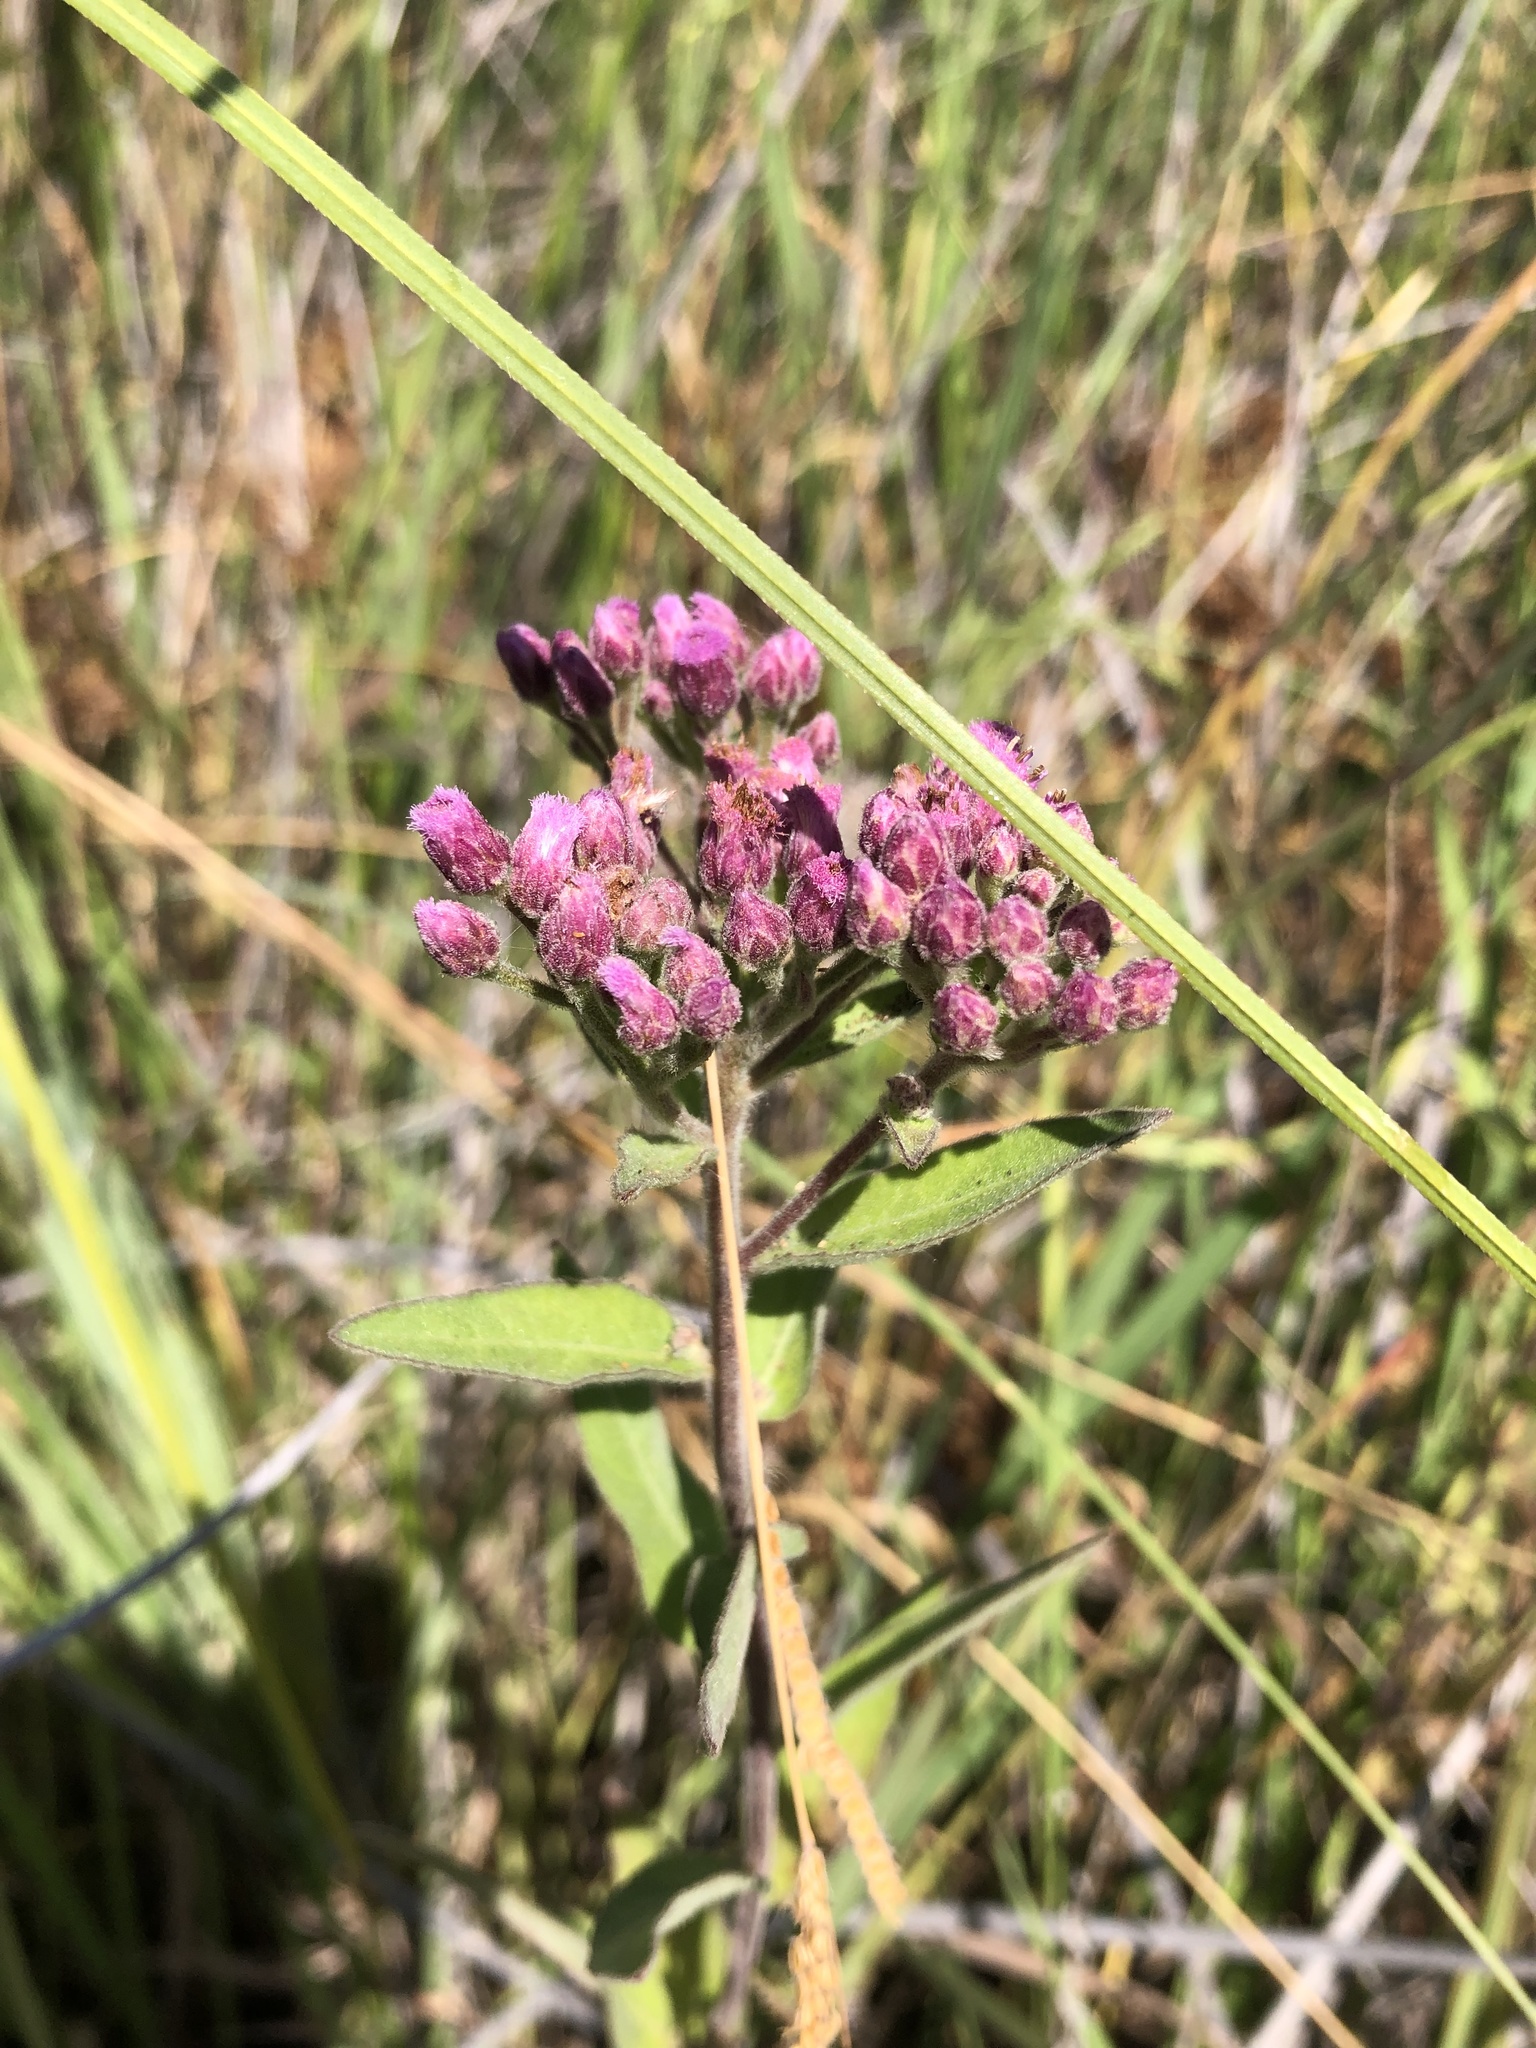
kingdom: Plantae
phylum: Tracheophyta
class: Magnoliopsida
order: Asterales
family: Asteraceae
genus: Pluchea
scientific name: Pluchea odorata
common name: Saltmarsh fleabane
